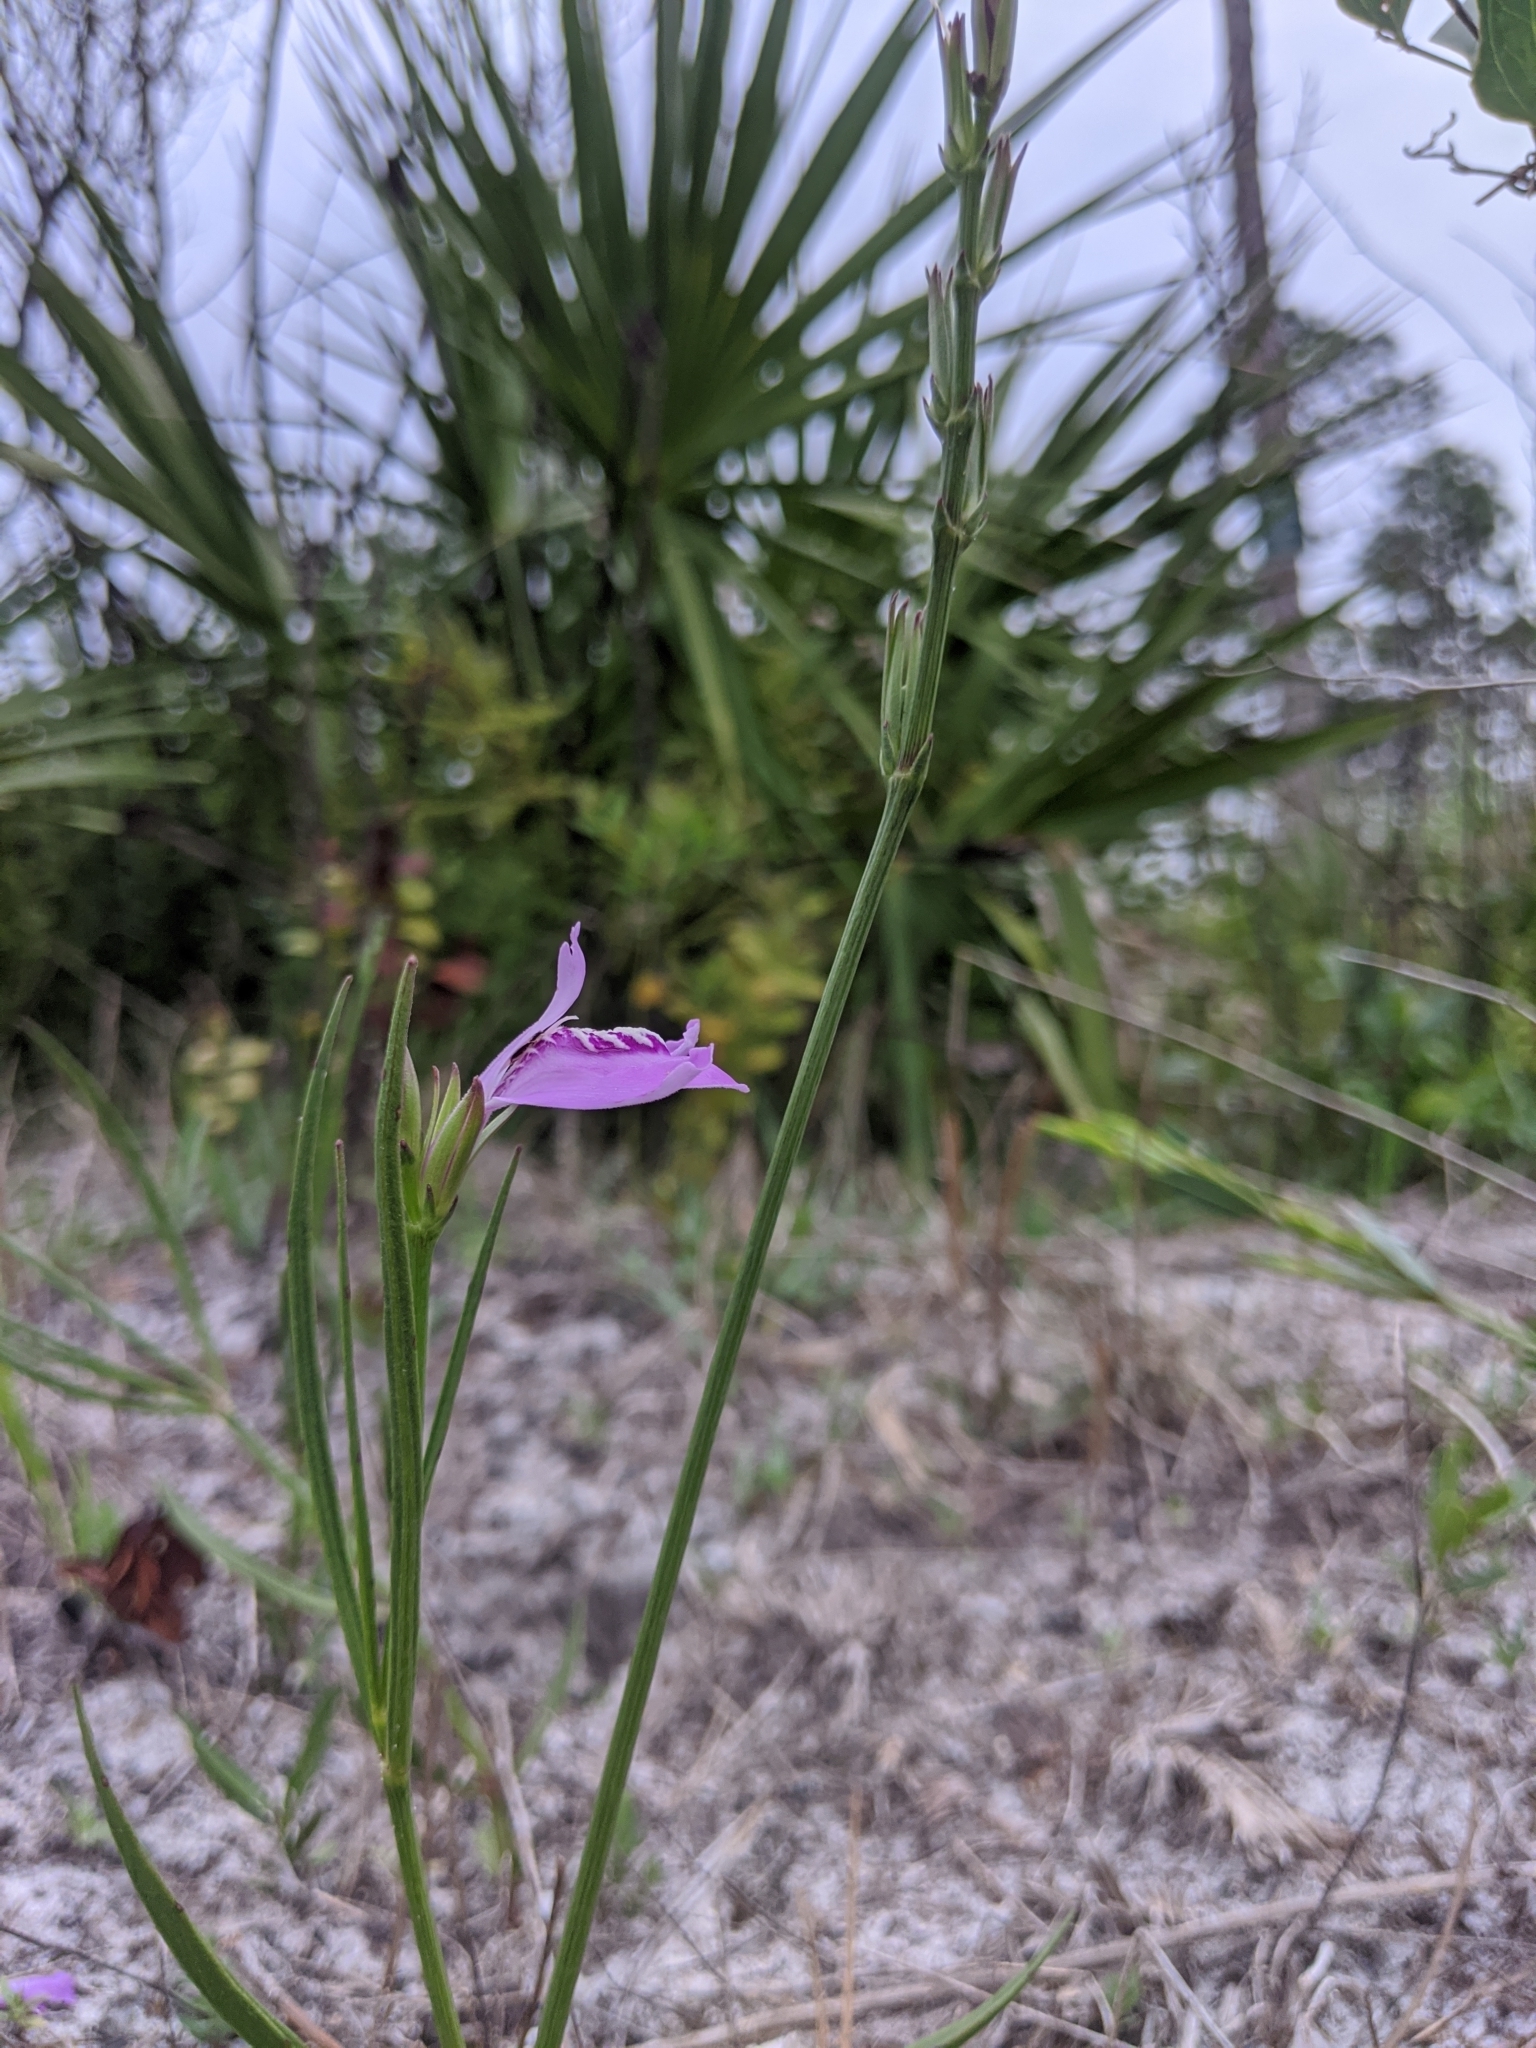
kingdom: Plantae
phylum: Tracheophyta
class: Magnoliopsida
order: Lamiales
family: Acanthaceae
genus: Dianthera
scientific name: Dianthera crassifolia
